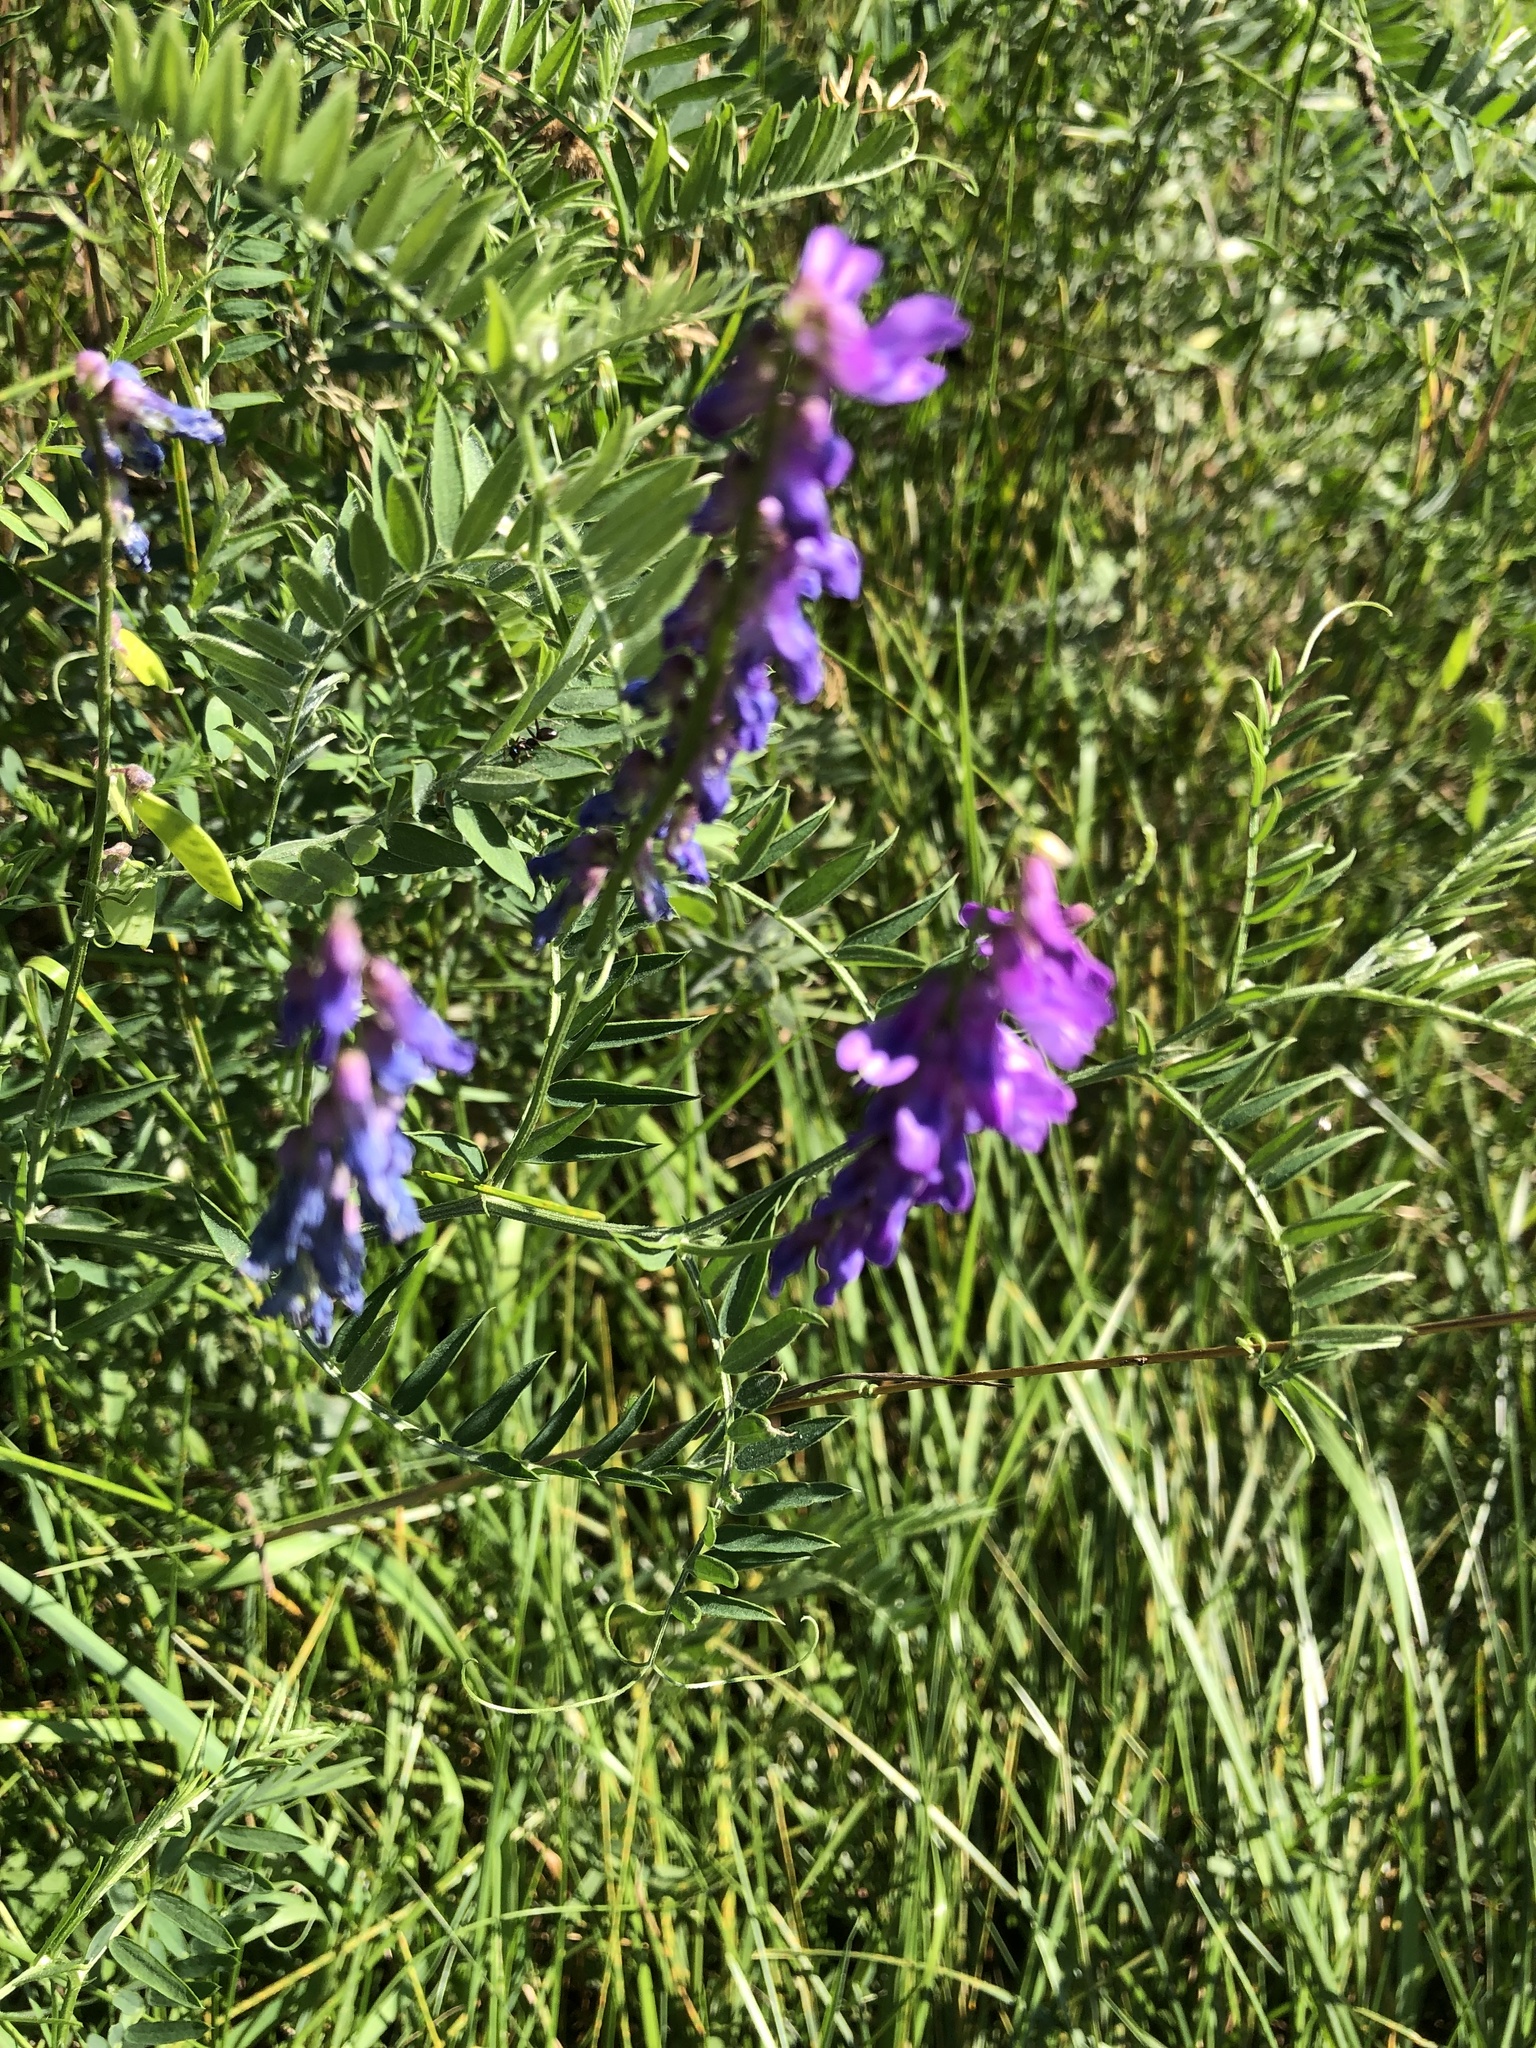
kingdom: Plantae
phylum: Tracheophyta
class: Magnoliopsida
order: Fabales
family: Fabaceae
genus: Vicia
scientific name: Vicia cracca
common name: Bird vetch
